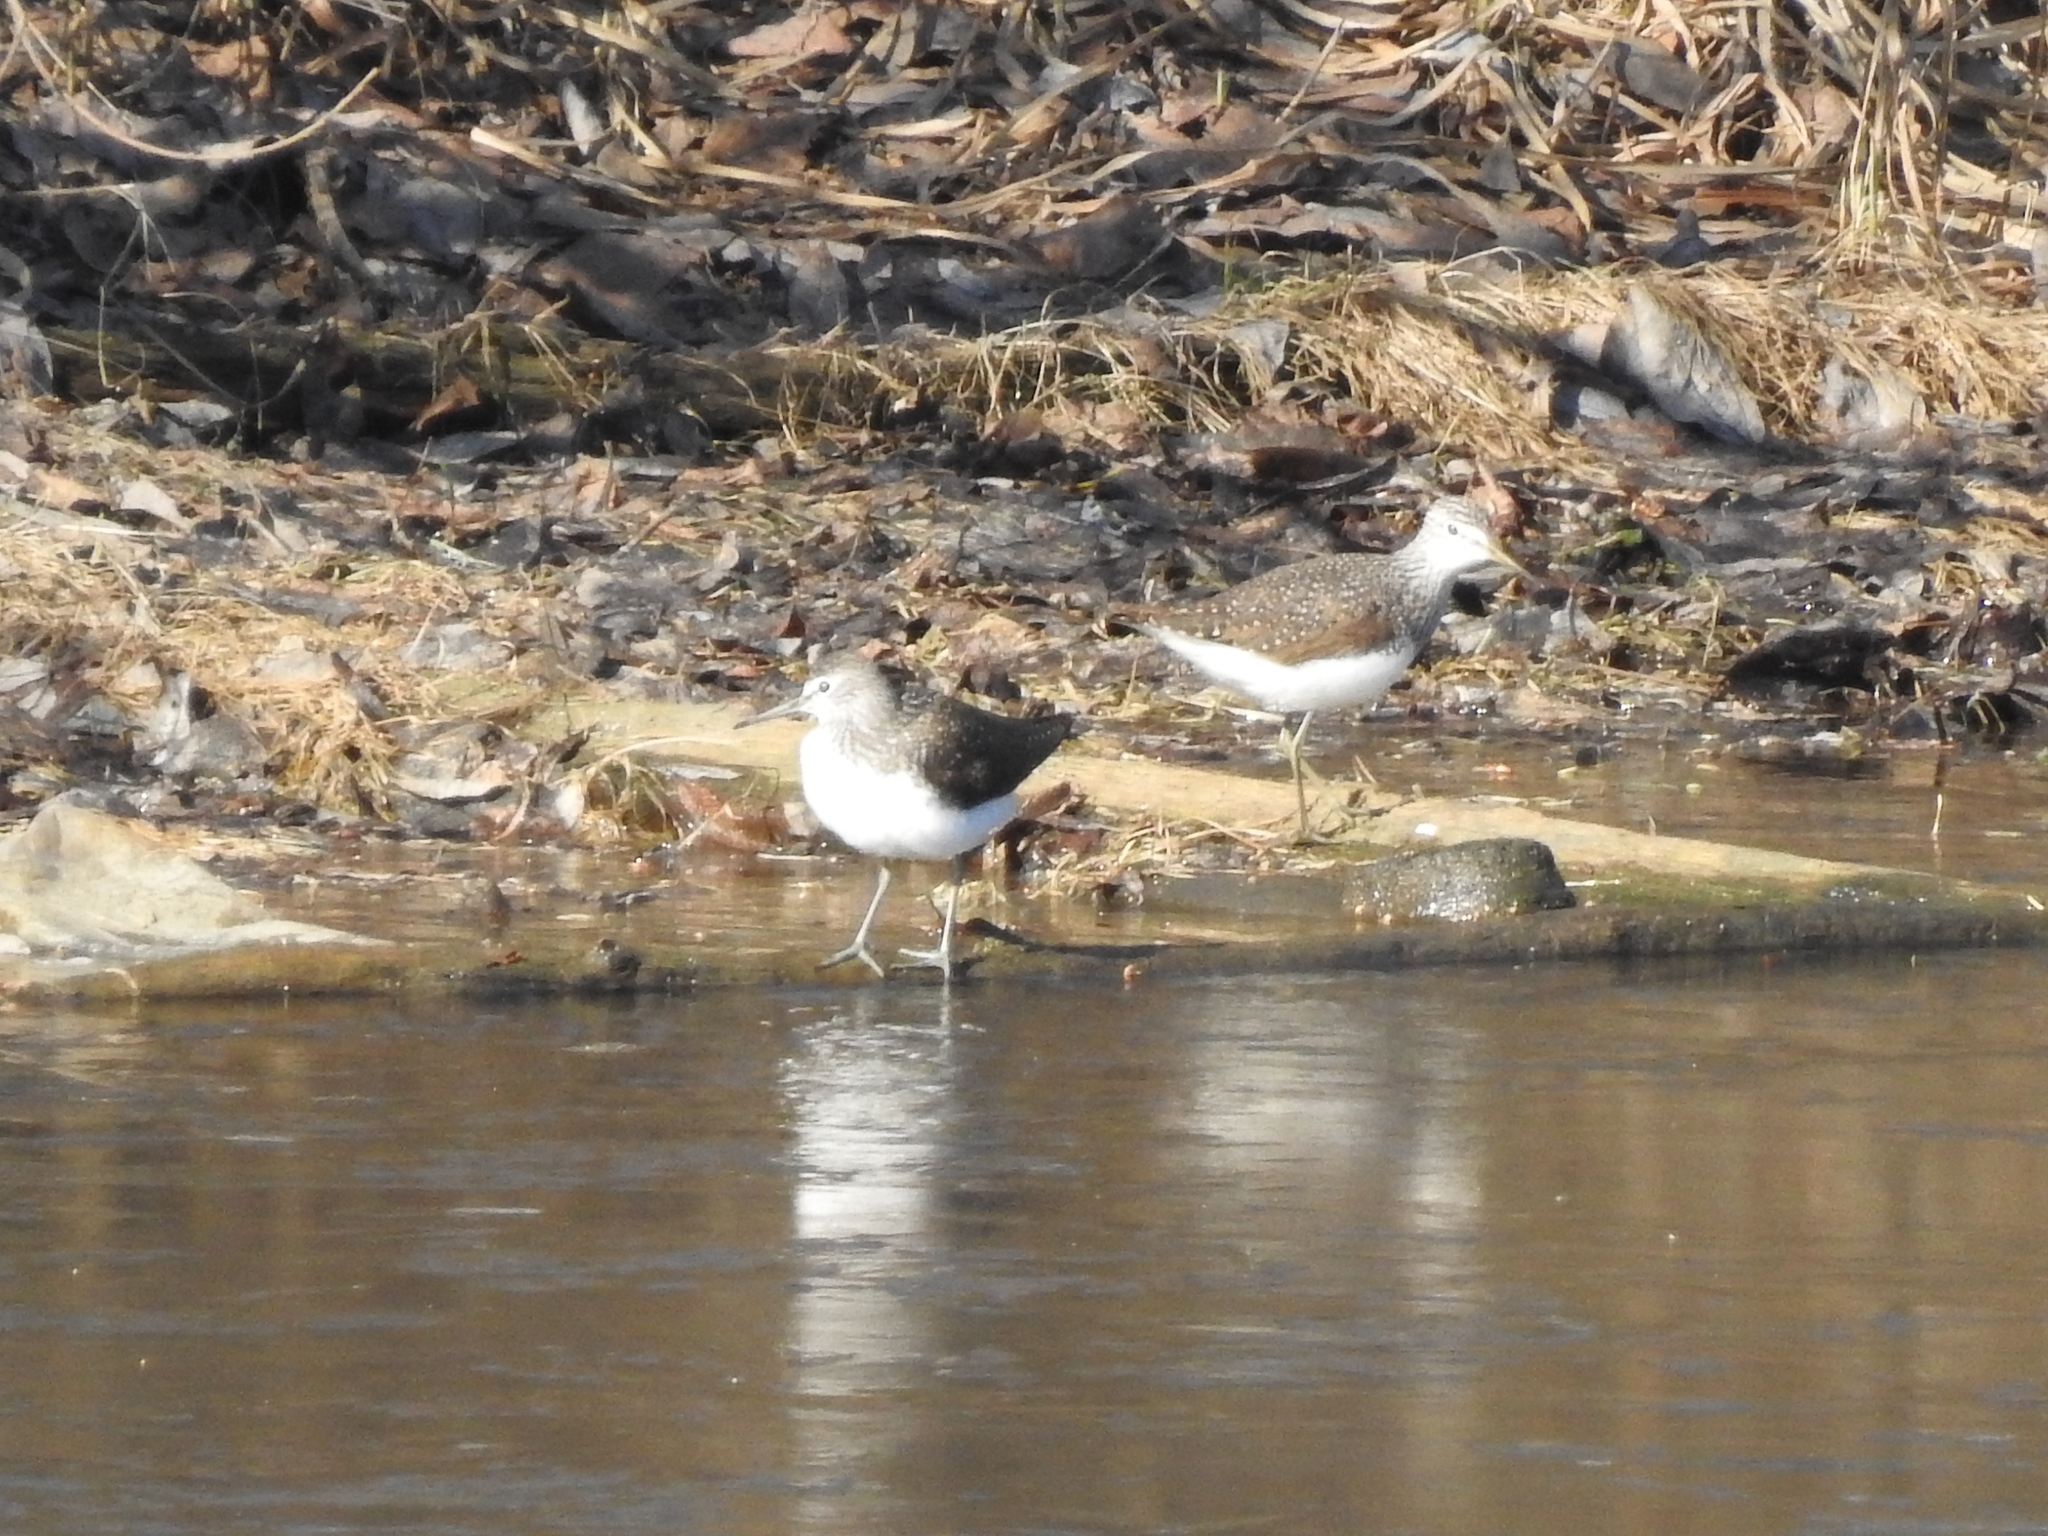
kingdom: Animalia
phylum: Chordata
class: Aves
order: Charadriiformes
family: Scolopacidae
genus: Tringa
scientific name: Tringa ochropus
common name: Green sandpiper
